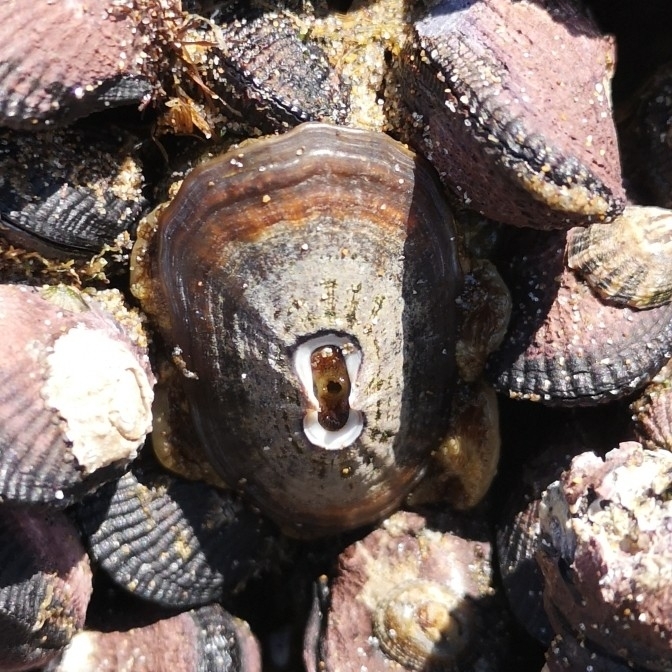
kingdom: Animalia
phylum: Mollusca
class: Gastropoda
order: Lepetellida
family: Fissurellidae
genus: Fissurella
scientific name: Fissurella crassa
